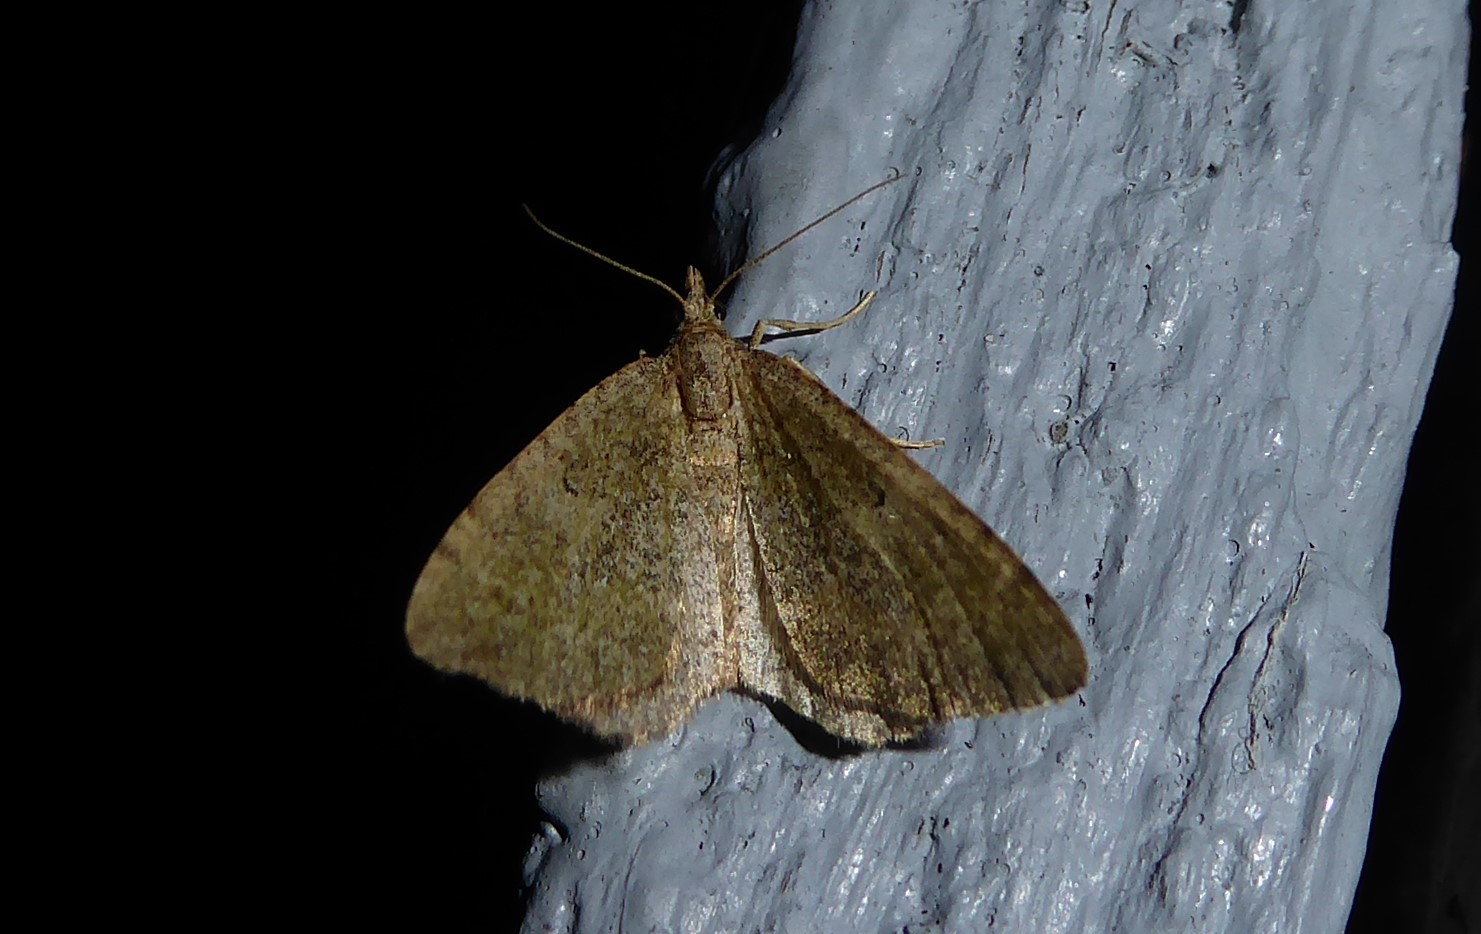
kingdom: Animalia
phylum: Arthropoda
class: Insecta
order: Lepidoptera
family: Geometridae
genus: Epyaxa
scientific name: Epyaxa rosearia
